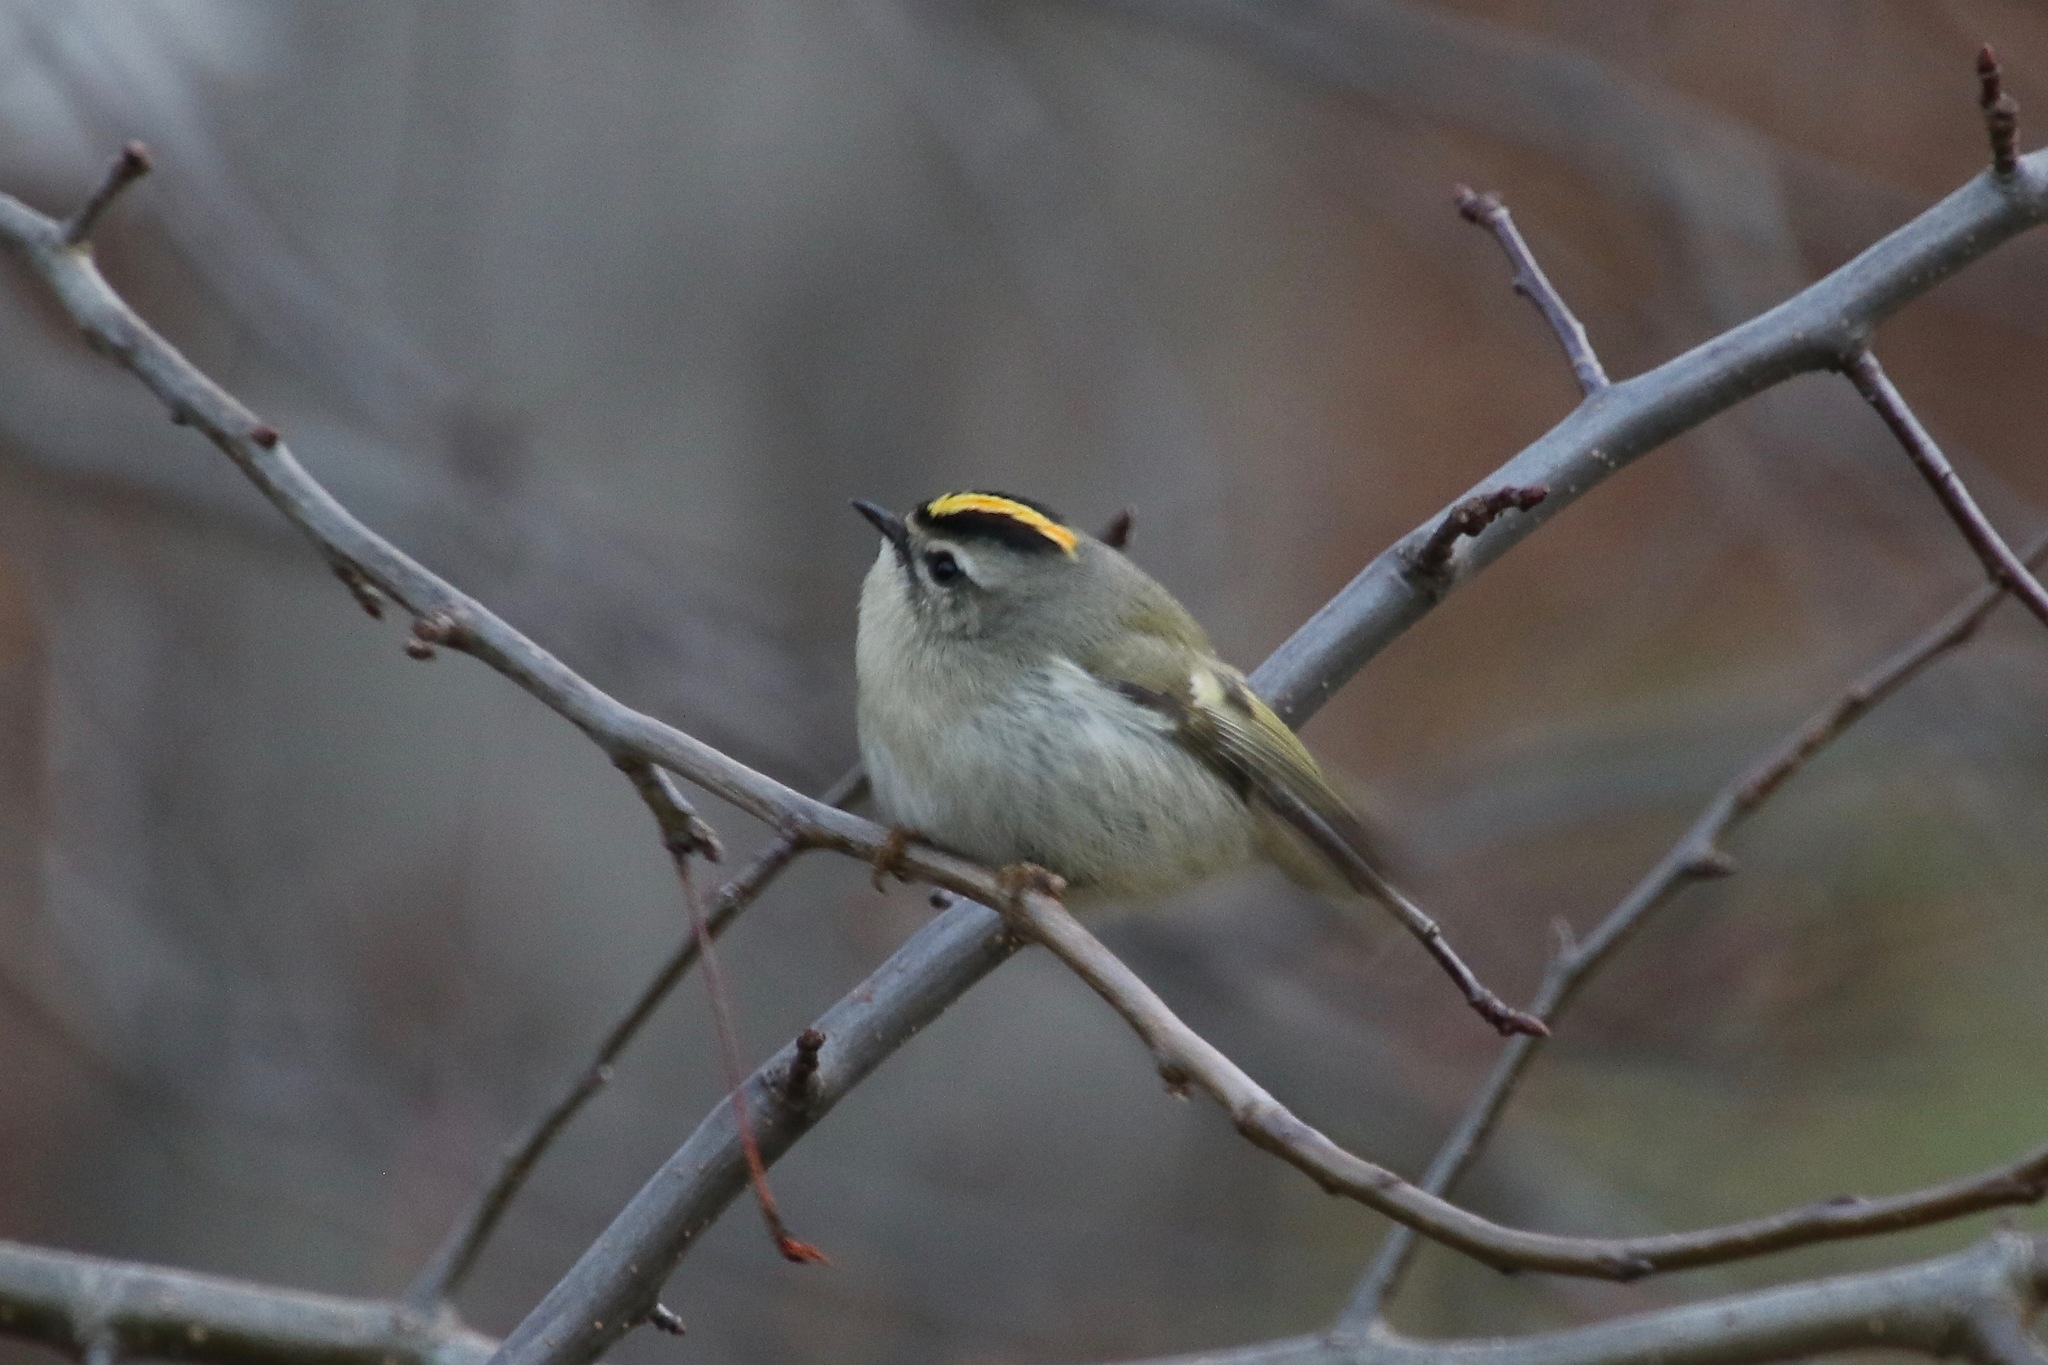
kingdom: Animalia
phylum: Chordata
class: Aves
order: Passeriformes
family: Regulidae
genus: Regulus
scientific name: Regulus satrapa
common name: Golden-crowned kinglet
